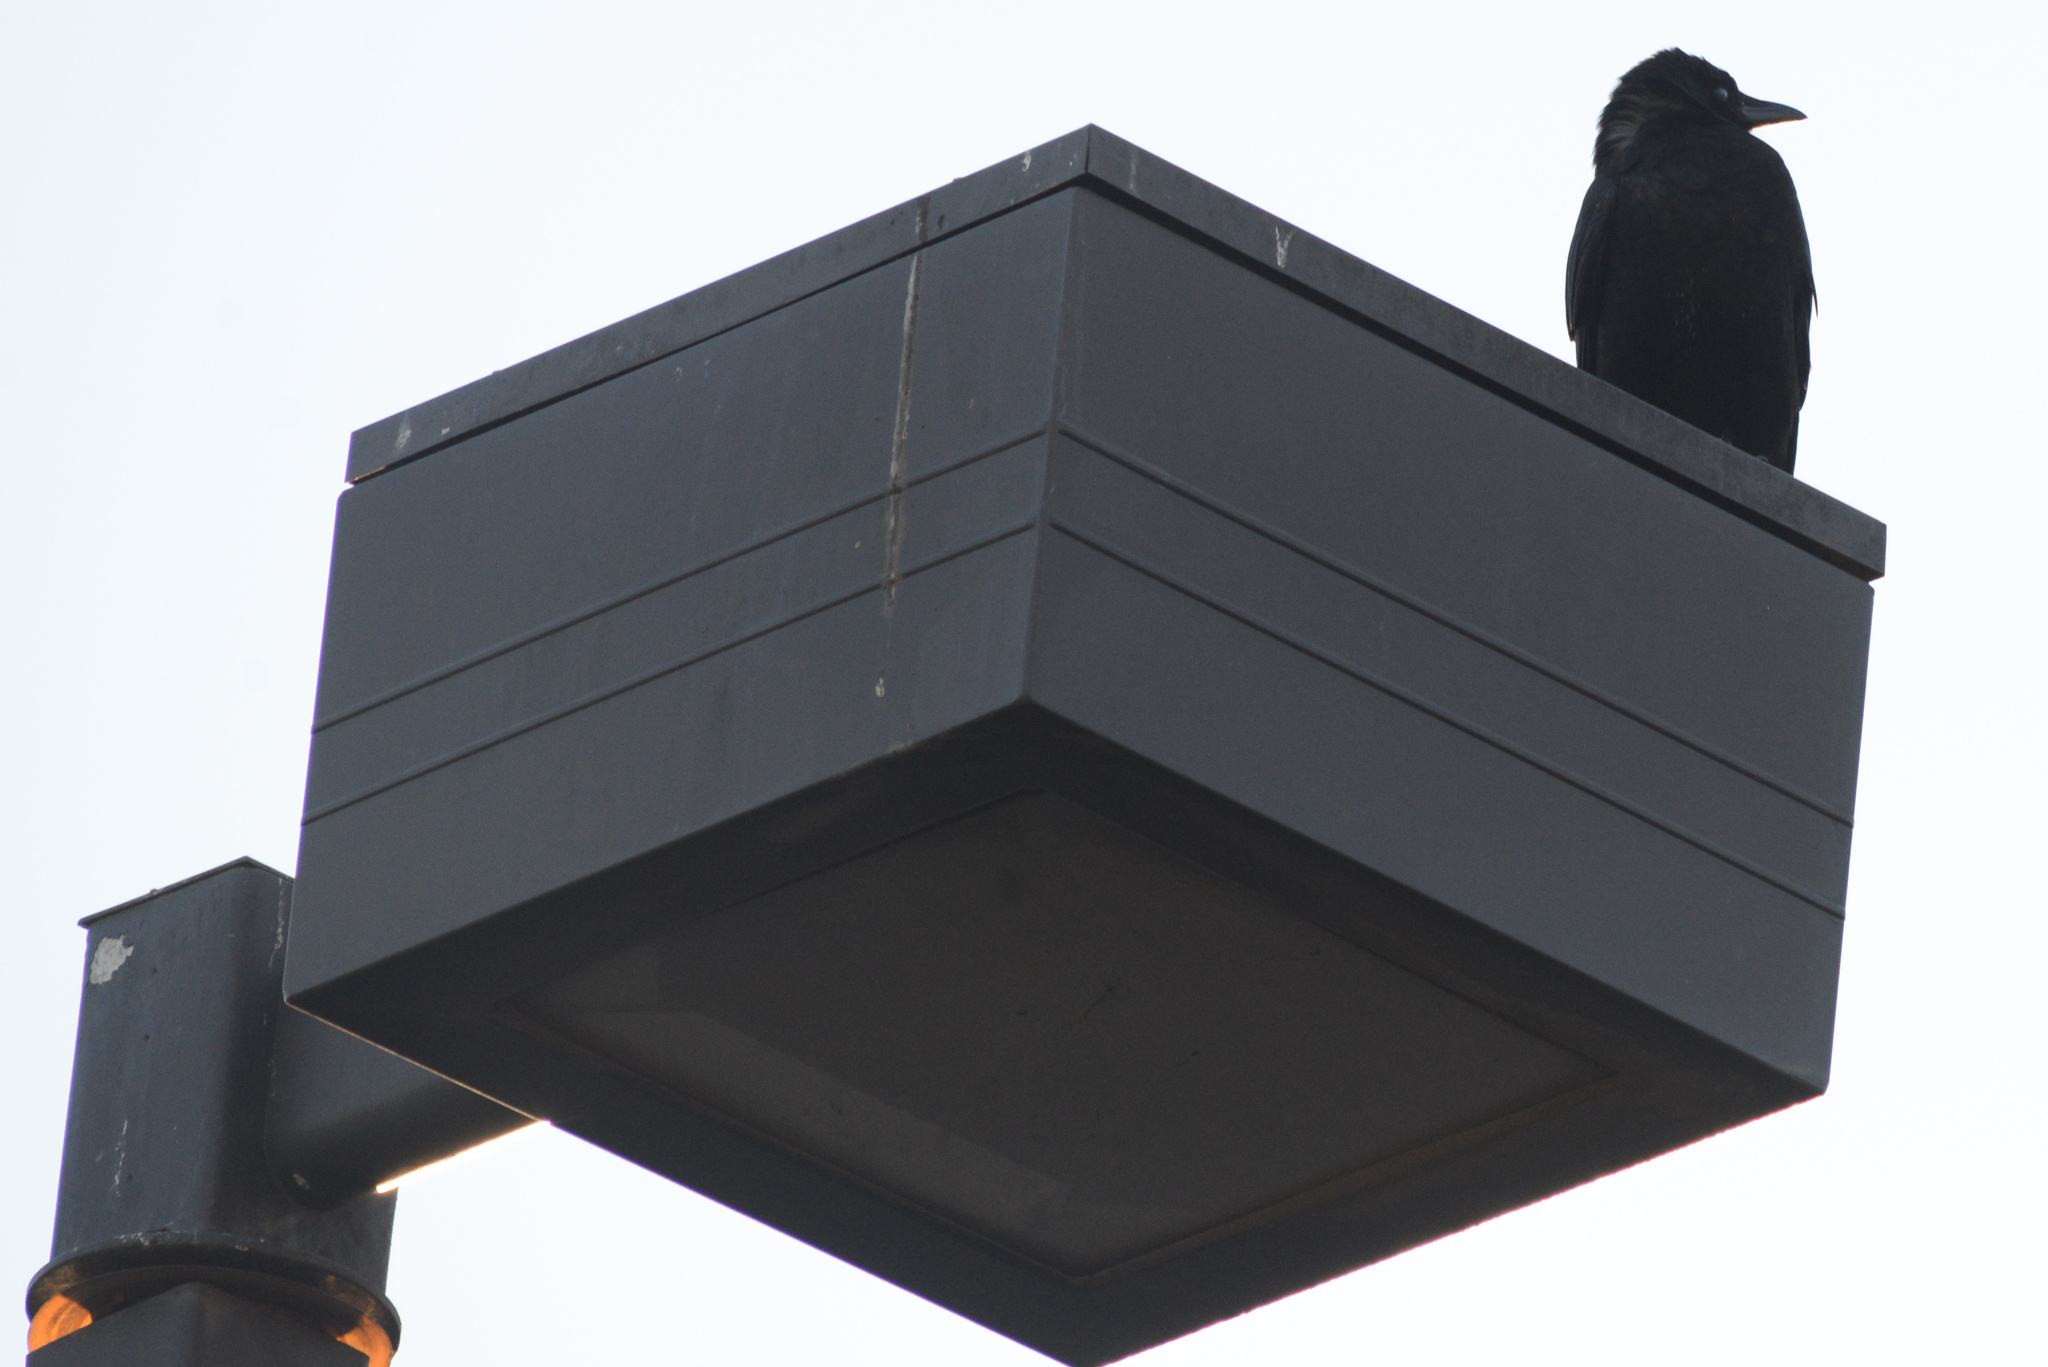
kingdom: Animalia
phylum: Chordata
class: Aves
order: Passeriformes
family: Corvidae
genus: Corvus
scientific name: Corvus brachyrhynchos
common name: American crow
